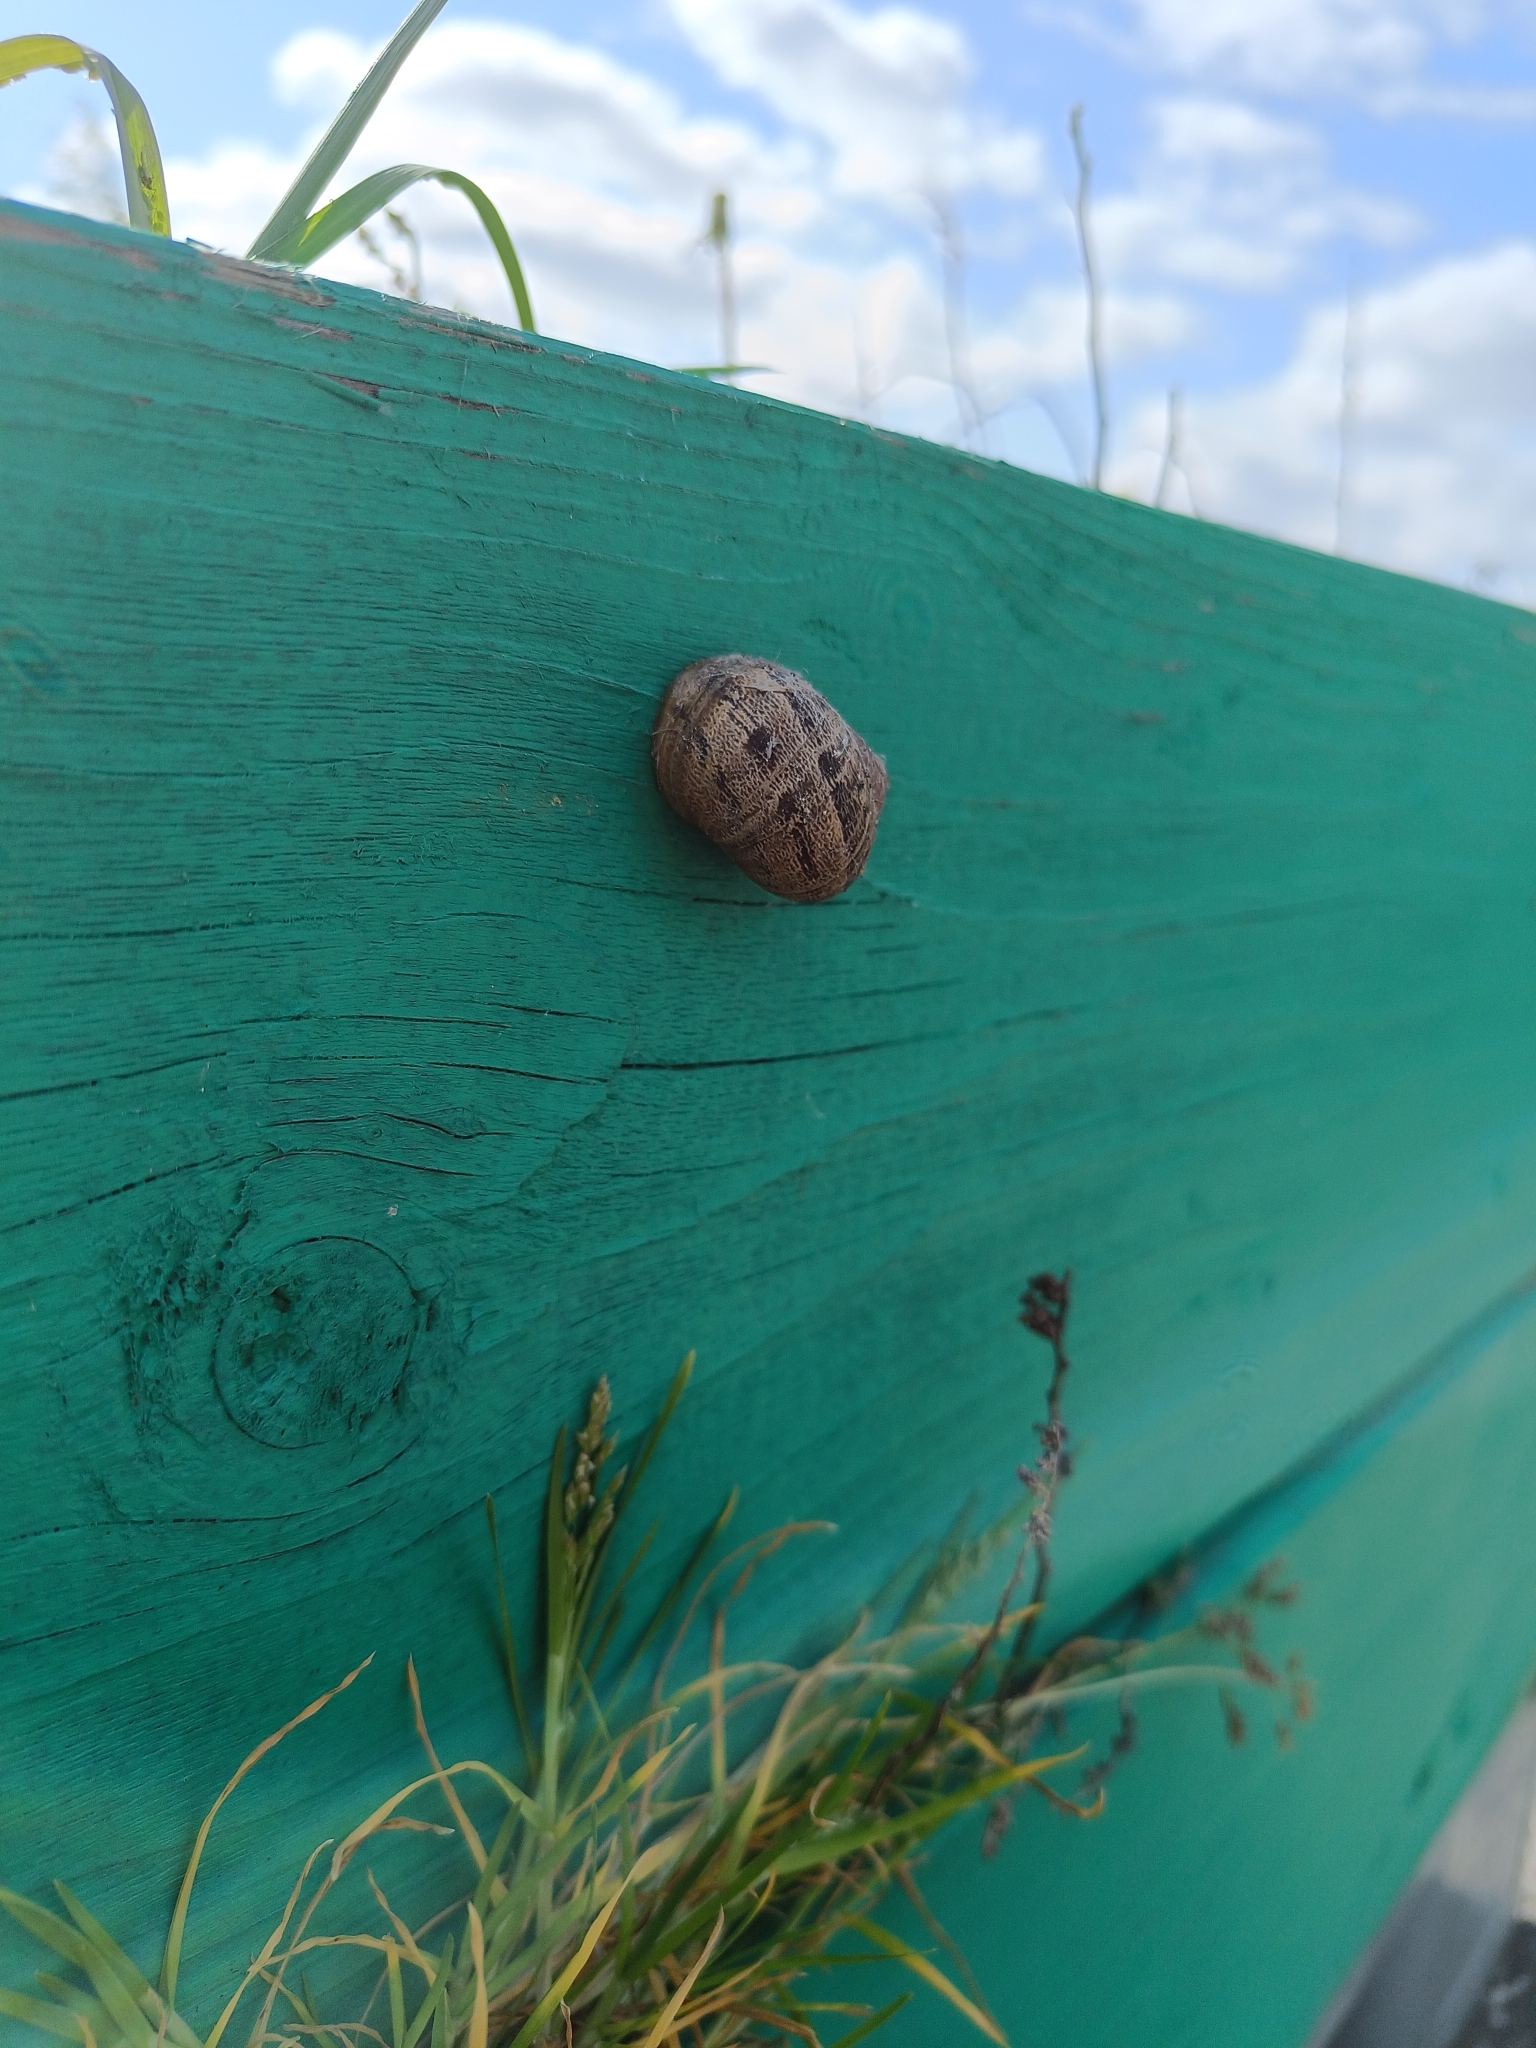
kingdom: Animalia
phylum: Mollusca
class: Gastropoda
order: Stylommatophora
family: Helicidae
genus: Cornu
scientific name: Cornu aspersum
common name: Brown garden snail
